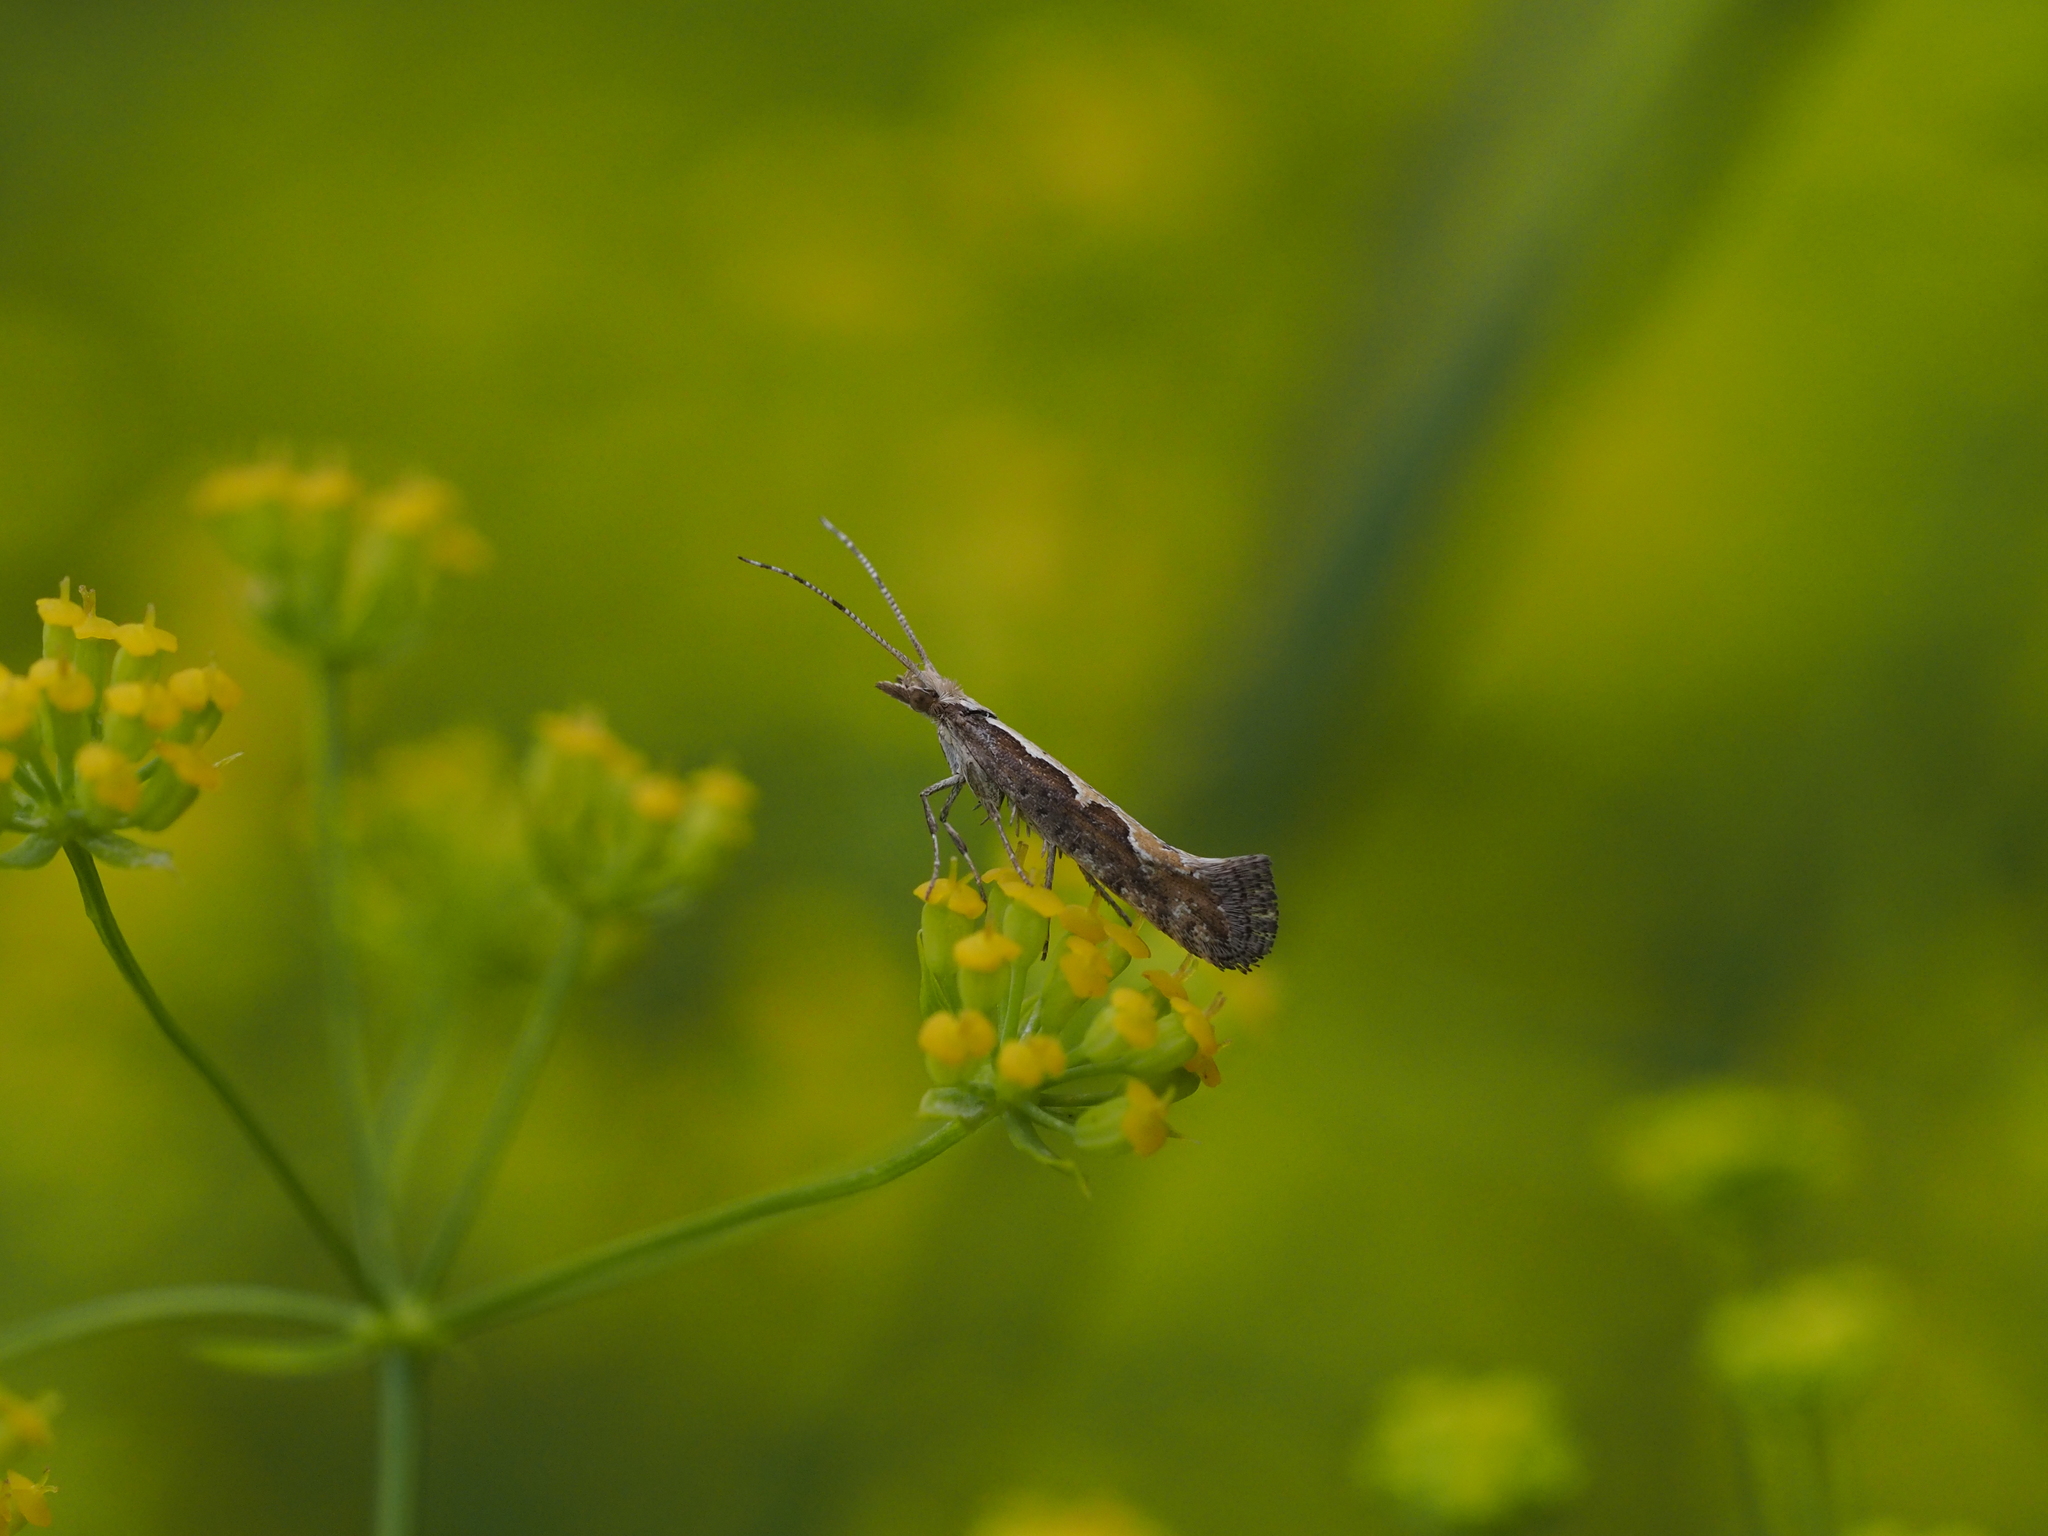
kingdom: Animalia
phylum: Arthropoda
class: Insecta
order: Lepidoptera
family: Plutellidae
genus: Plutella
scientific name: Plutella xylostella
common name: Diamond-back moth
